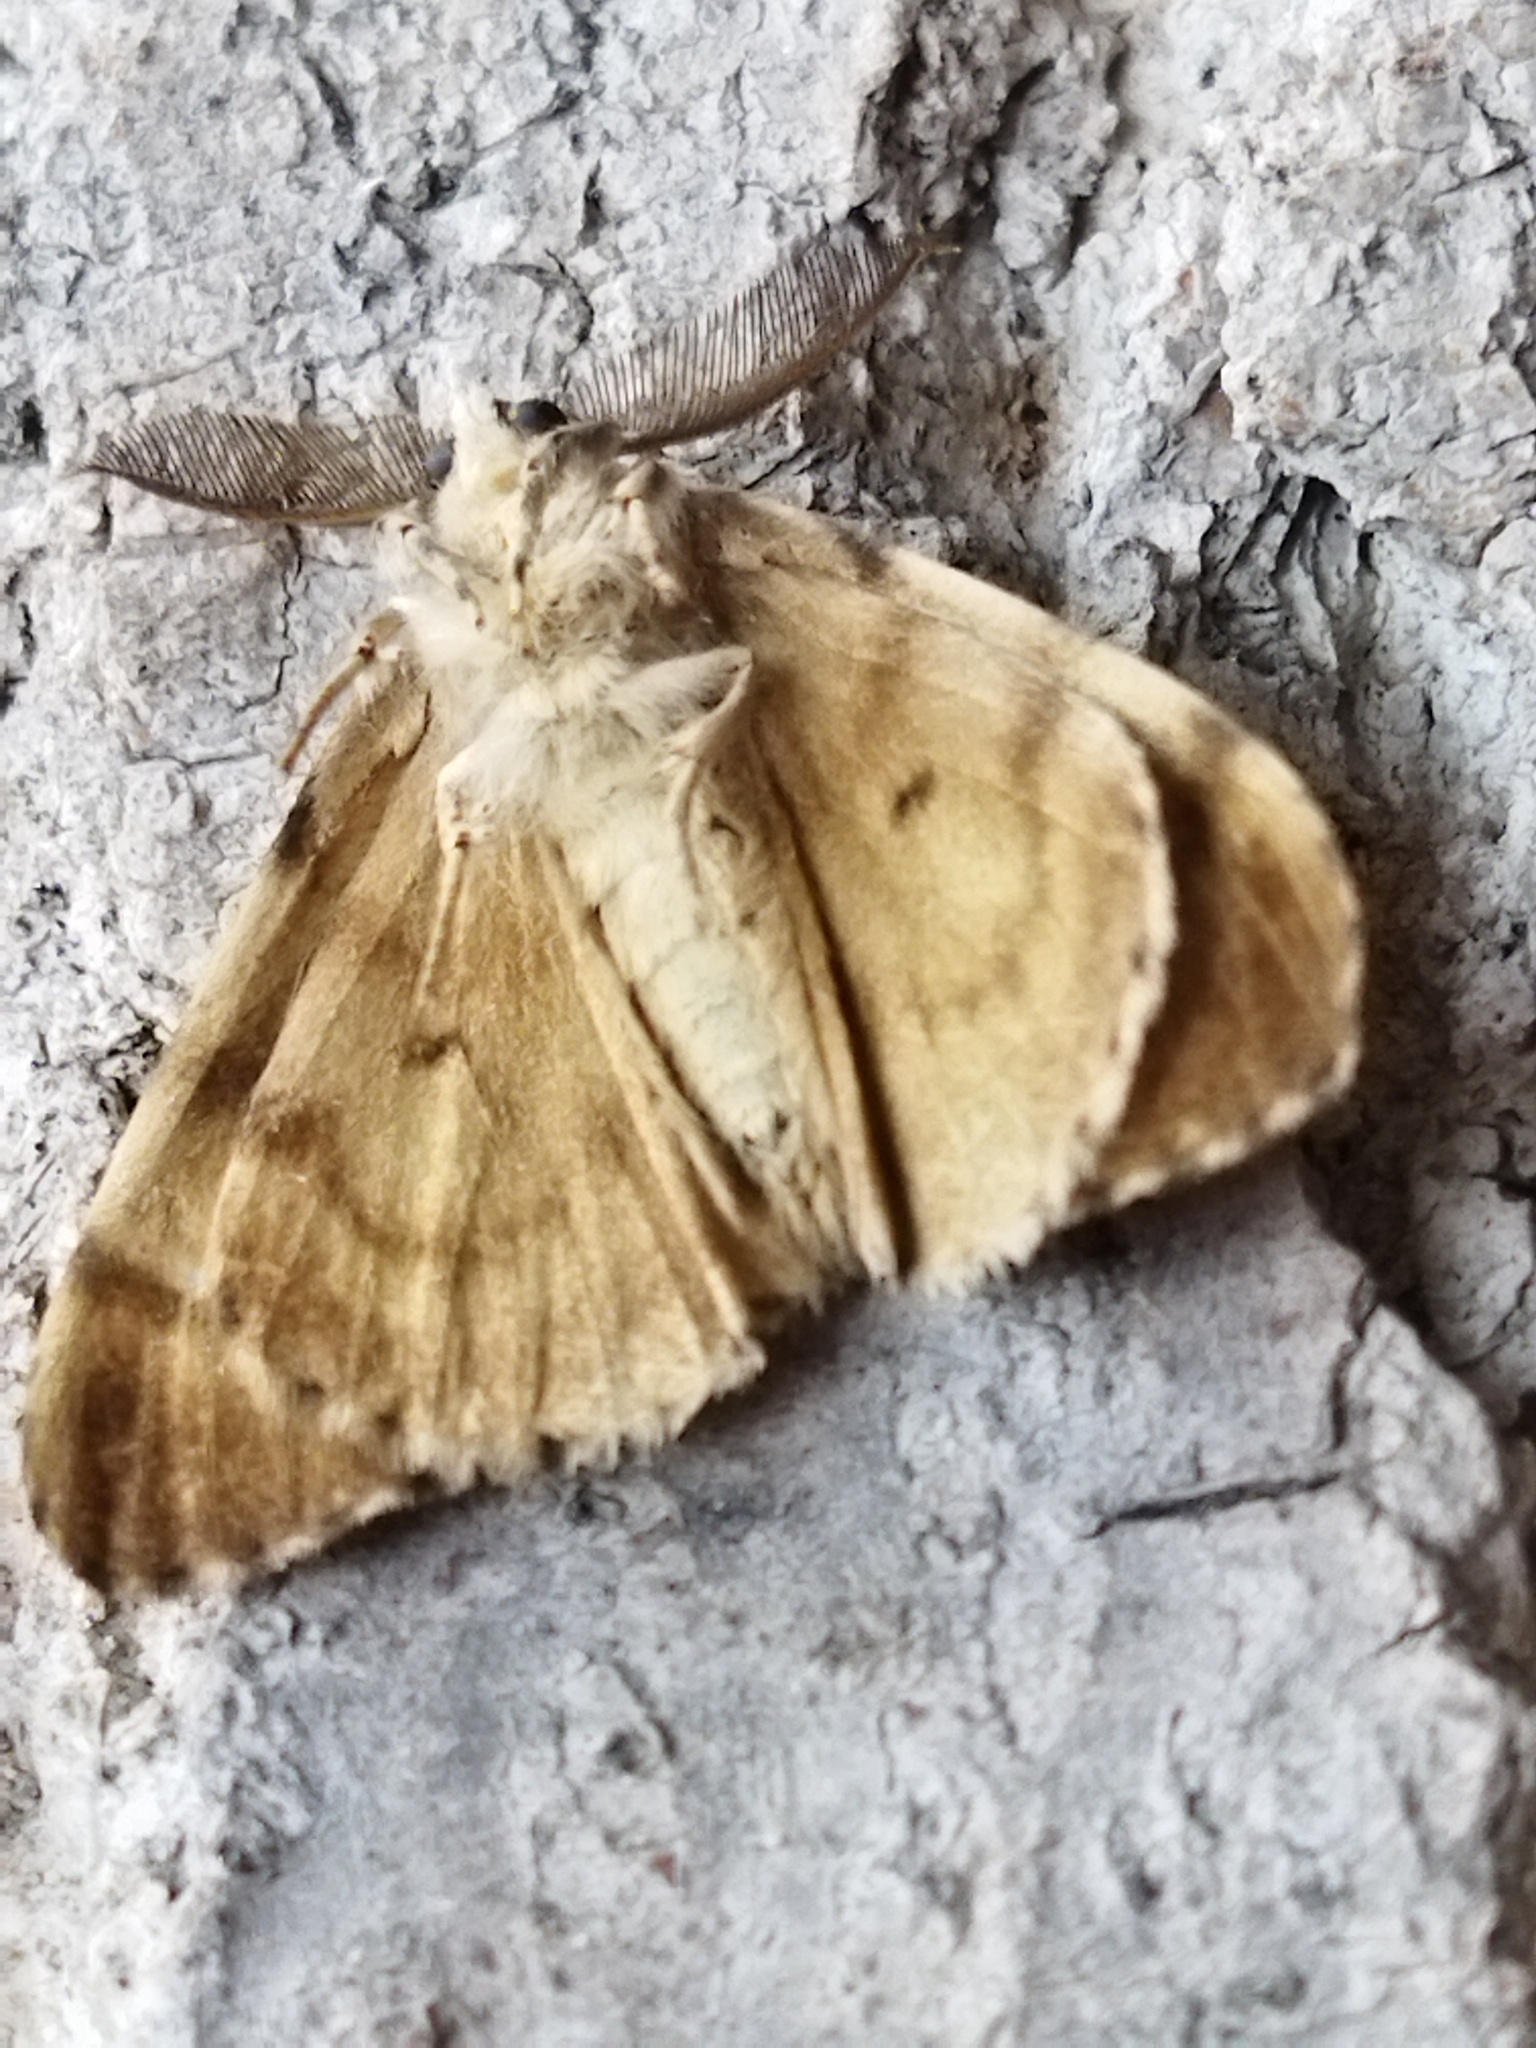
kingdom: Animalia
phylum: Arthropoda
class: Insecta
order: Lepidoptera
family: Erebidae
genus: Lymantria
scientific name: Lymantria dispar
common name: Gypsy moth
